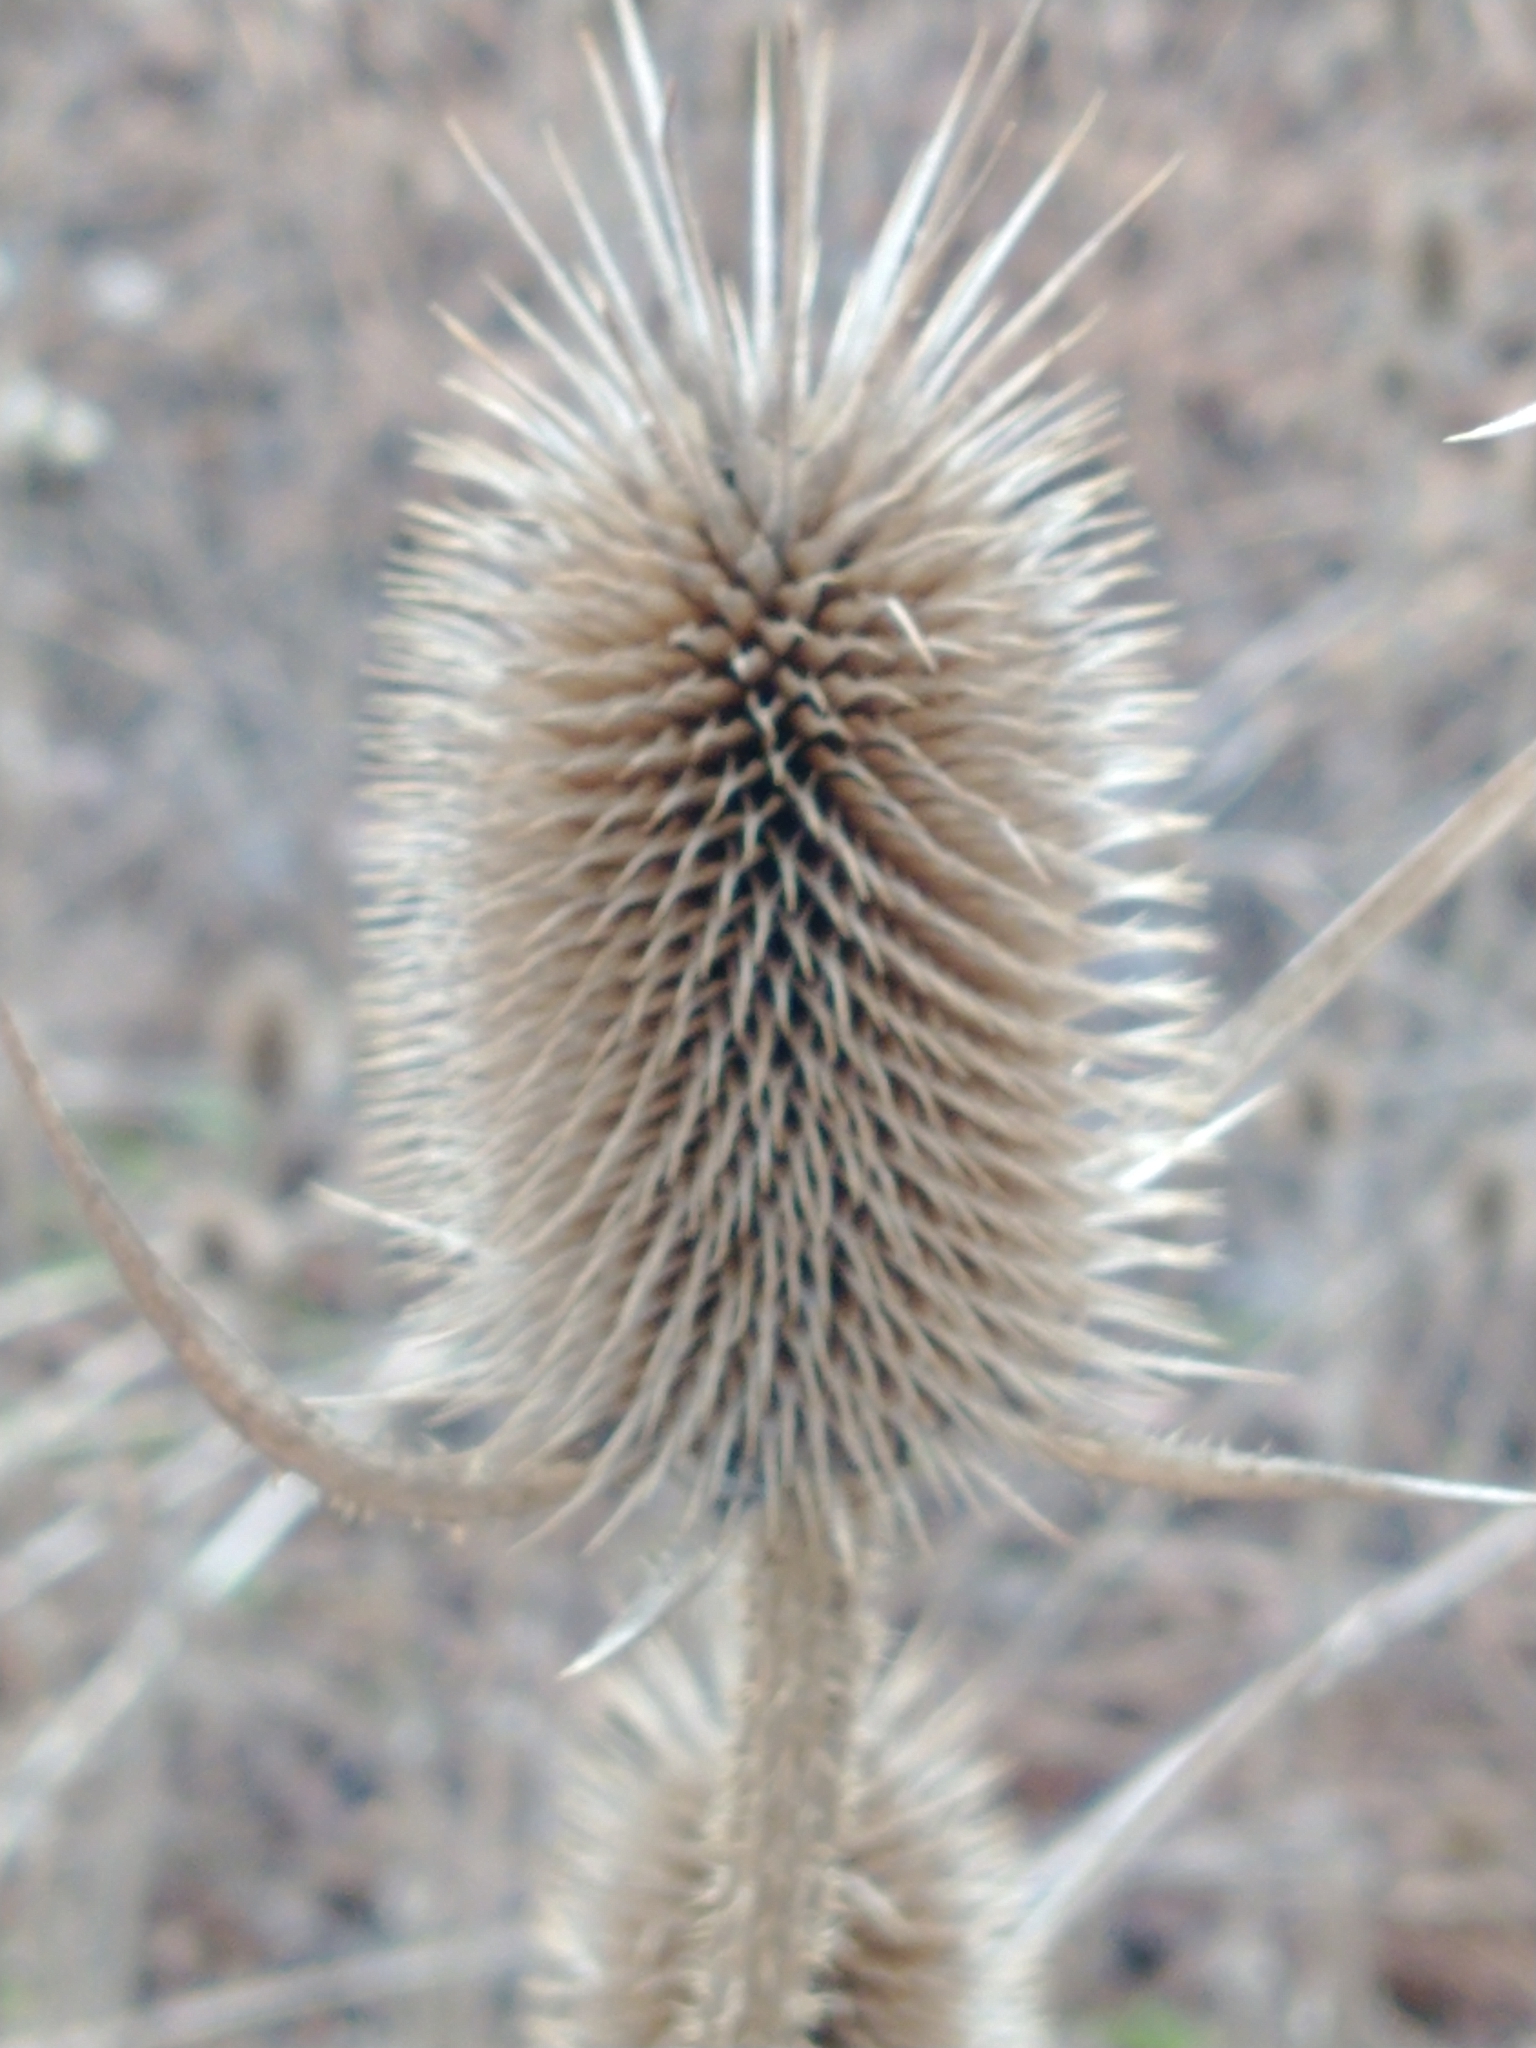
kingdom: Plantae
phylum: Tracheophyta
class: Magnoliopsida
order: Dipsacales
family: Caprifoliaceae
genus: Dipsacus
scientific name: Dipsacus fullonum
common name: Teasel
